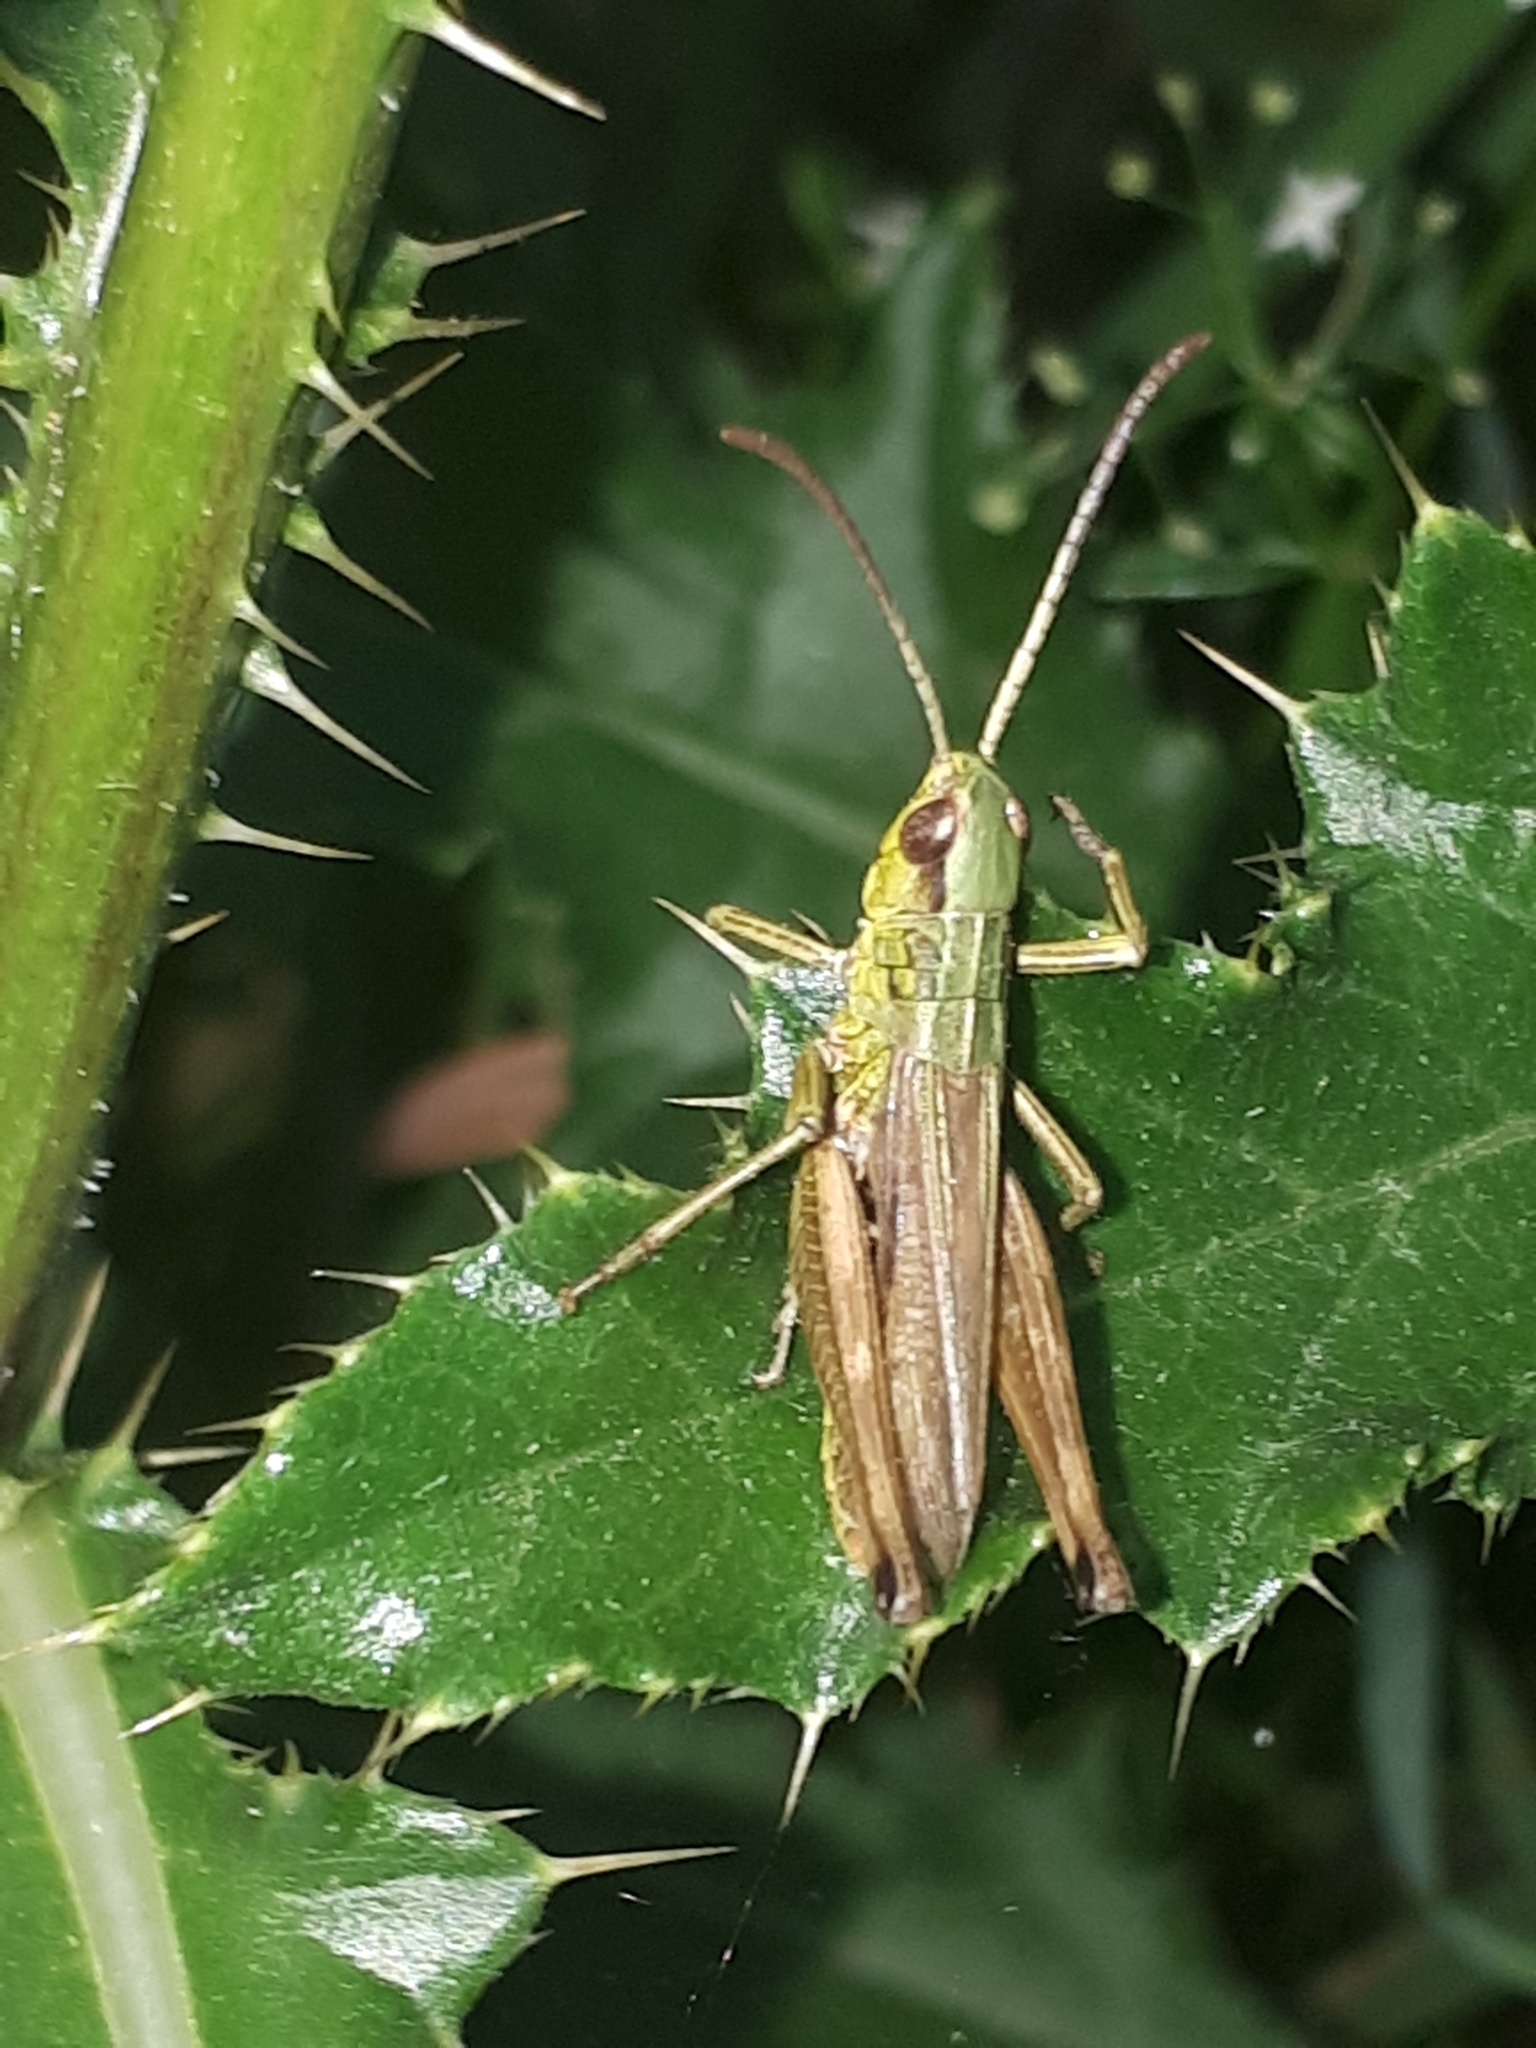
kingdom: Animalia
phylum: Arthropoda
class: Insecta
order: Orthoptera
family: Acrididae
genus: Pseudochorthippus
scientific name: Pseudochorthippus parallelus
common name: Meadow grasshopper
